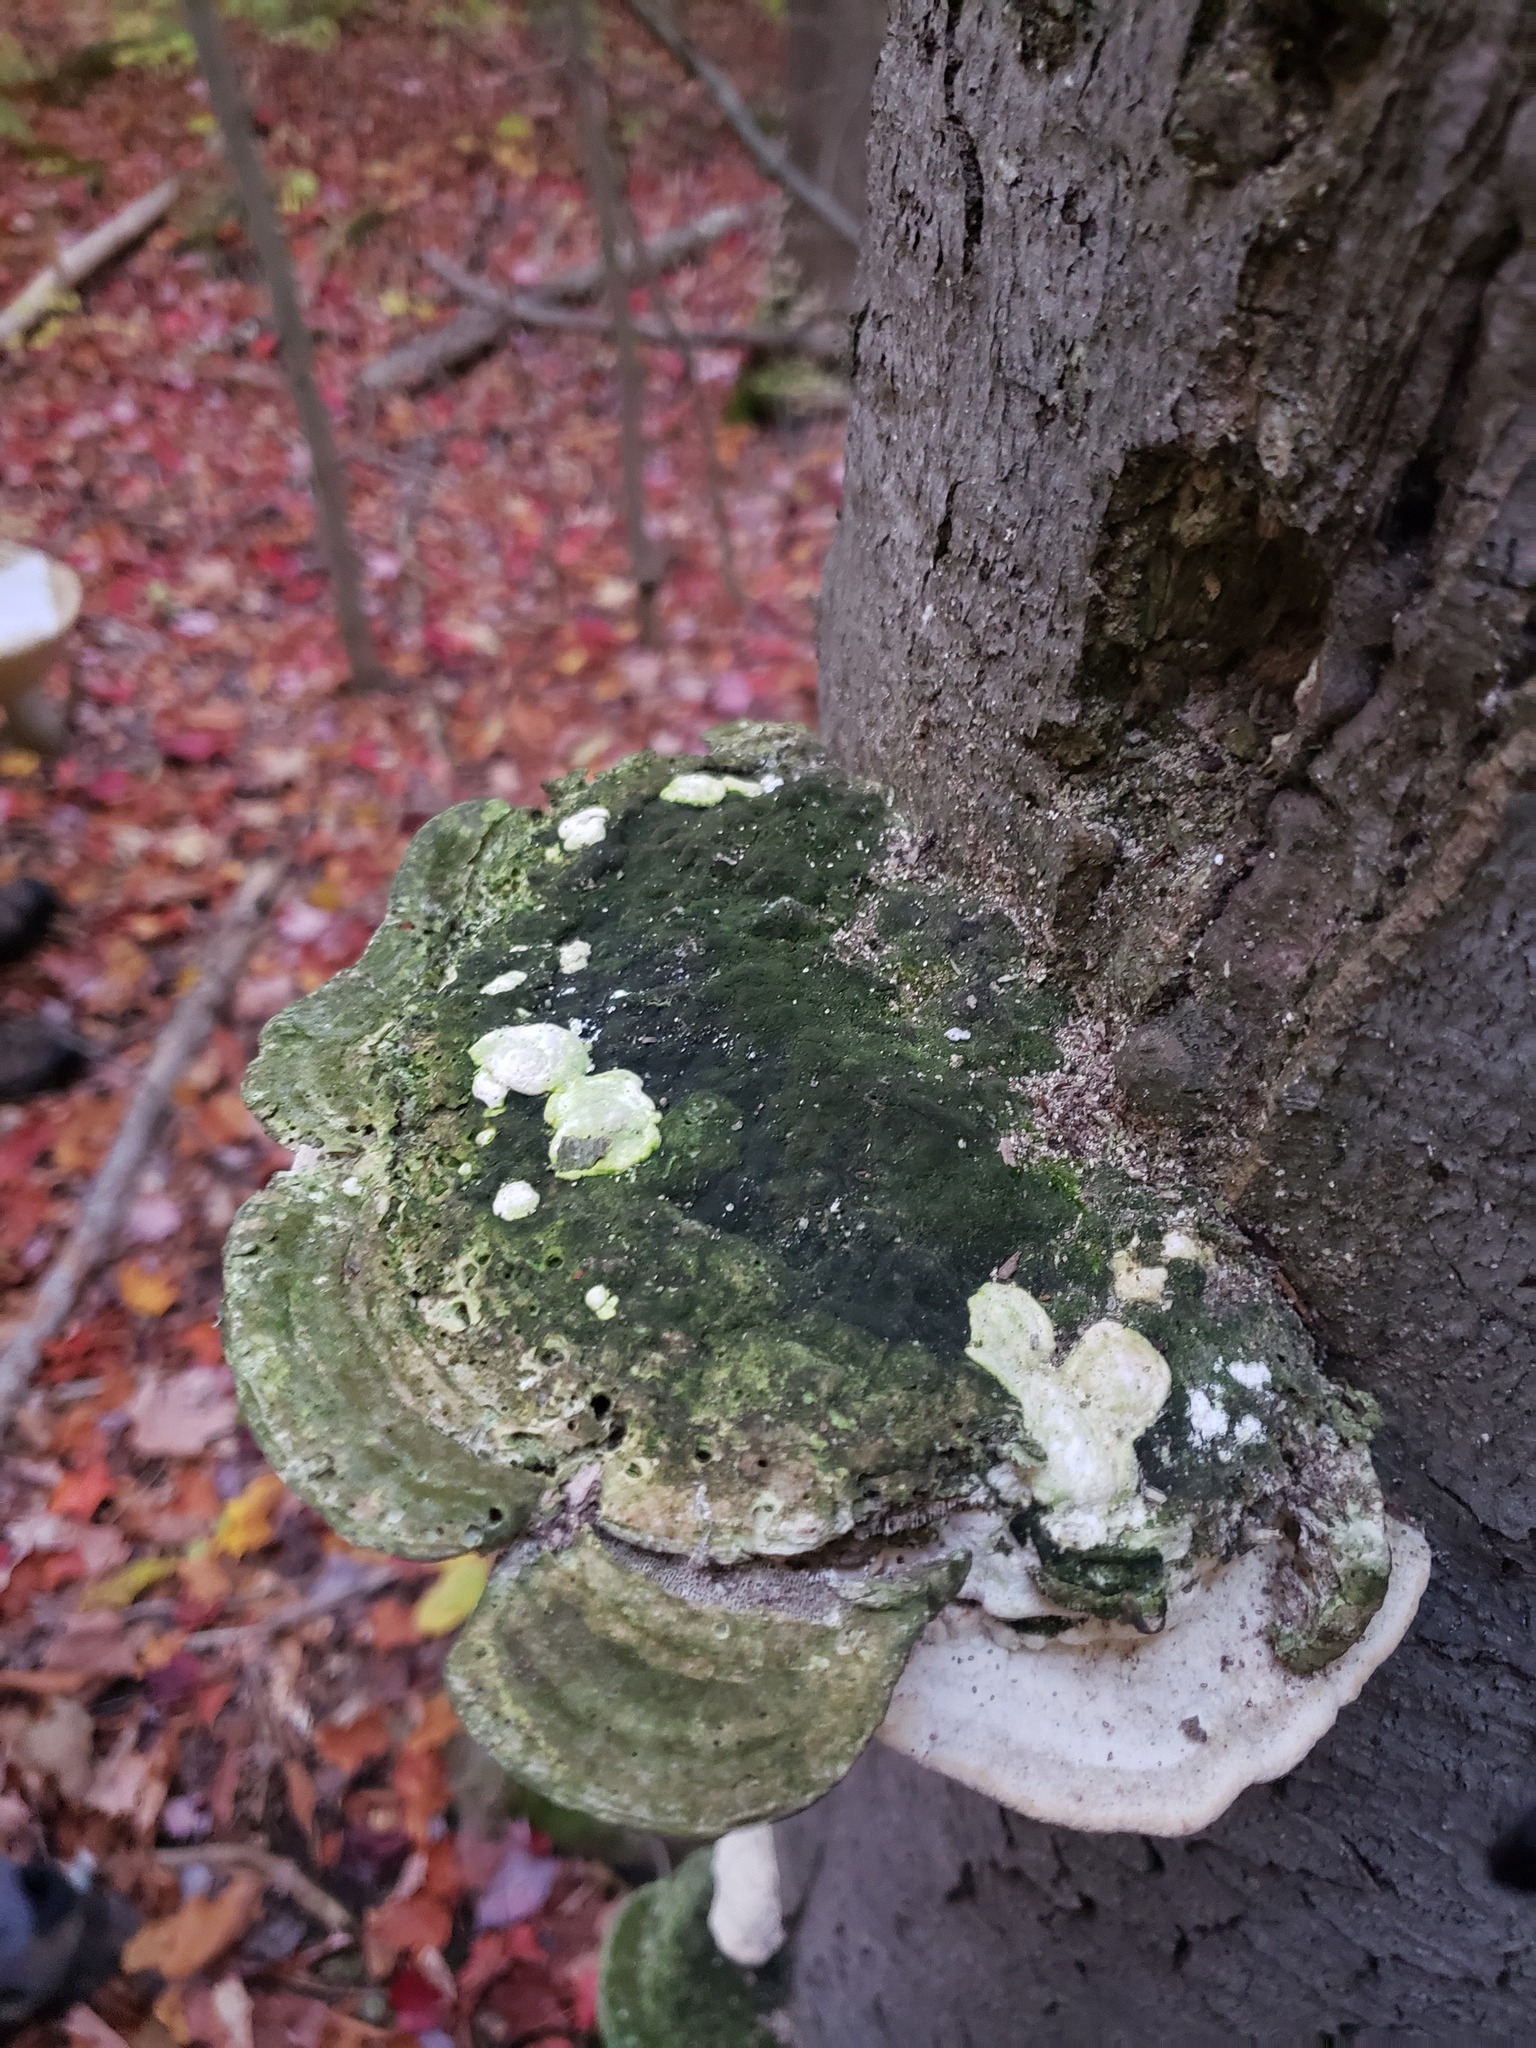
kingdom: Fungi
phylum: Basidiomycota
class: Agaricomycetes
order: Polyporales
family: Polyporaceae
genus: Trametes
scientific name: Trametes gibbosa
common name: Lumpy bracket
